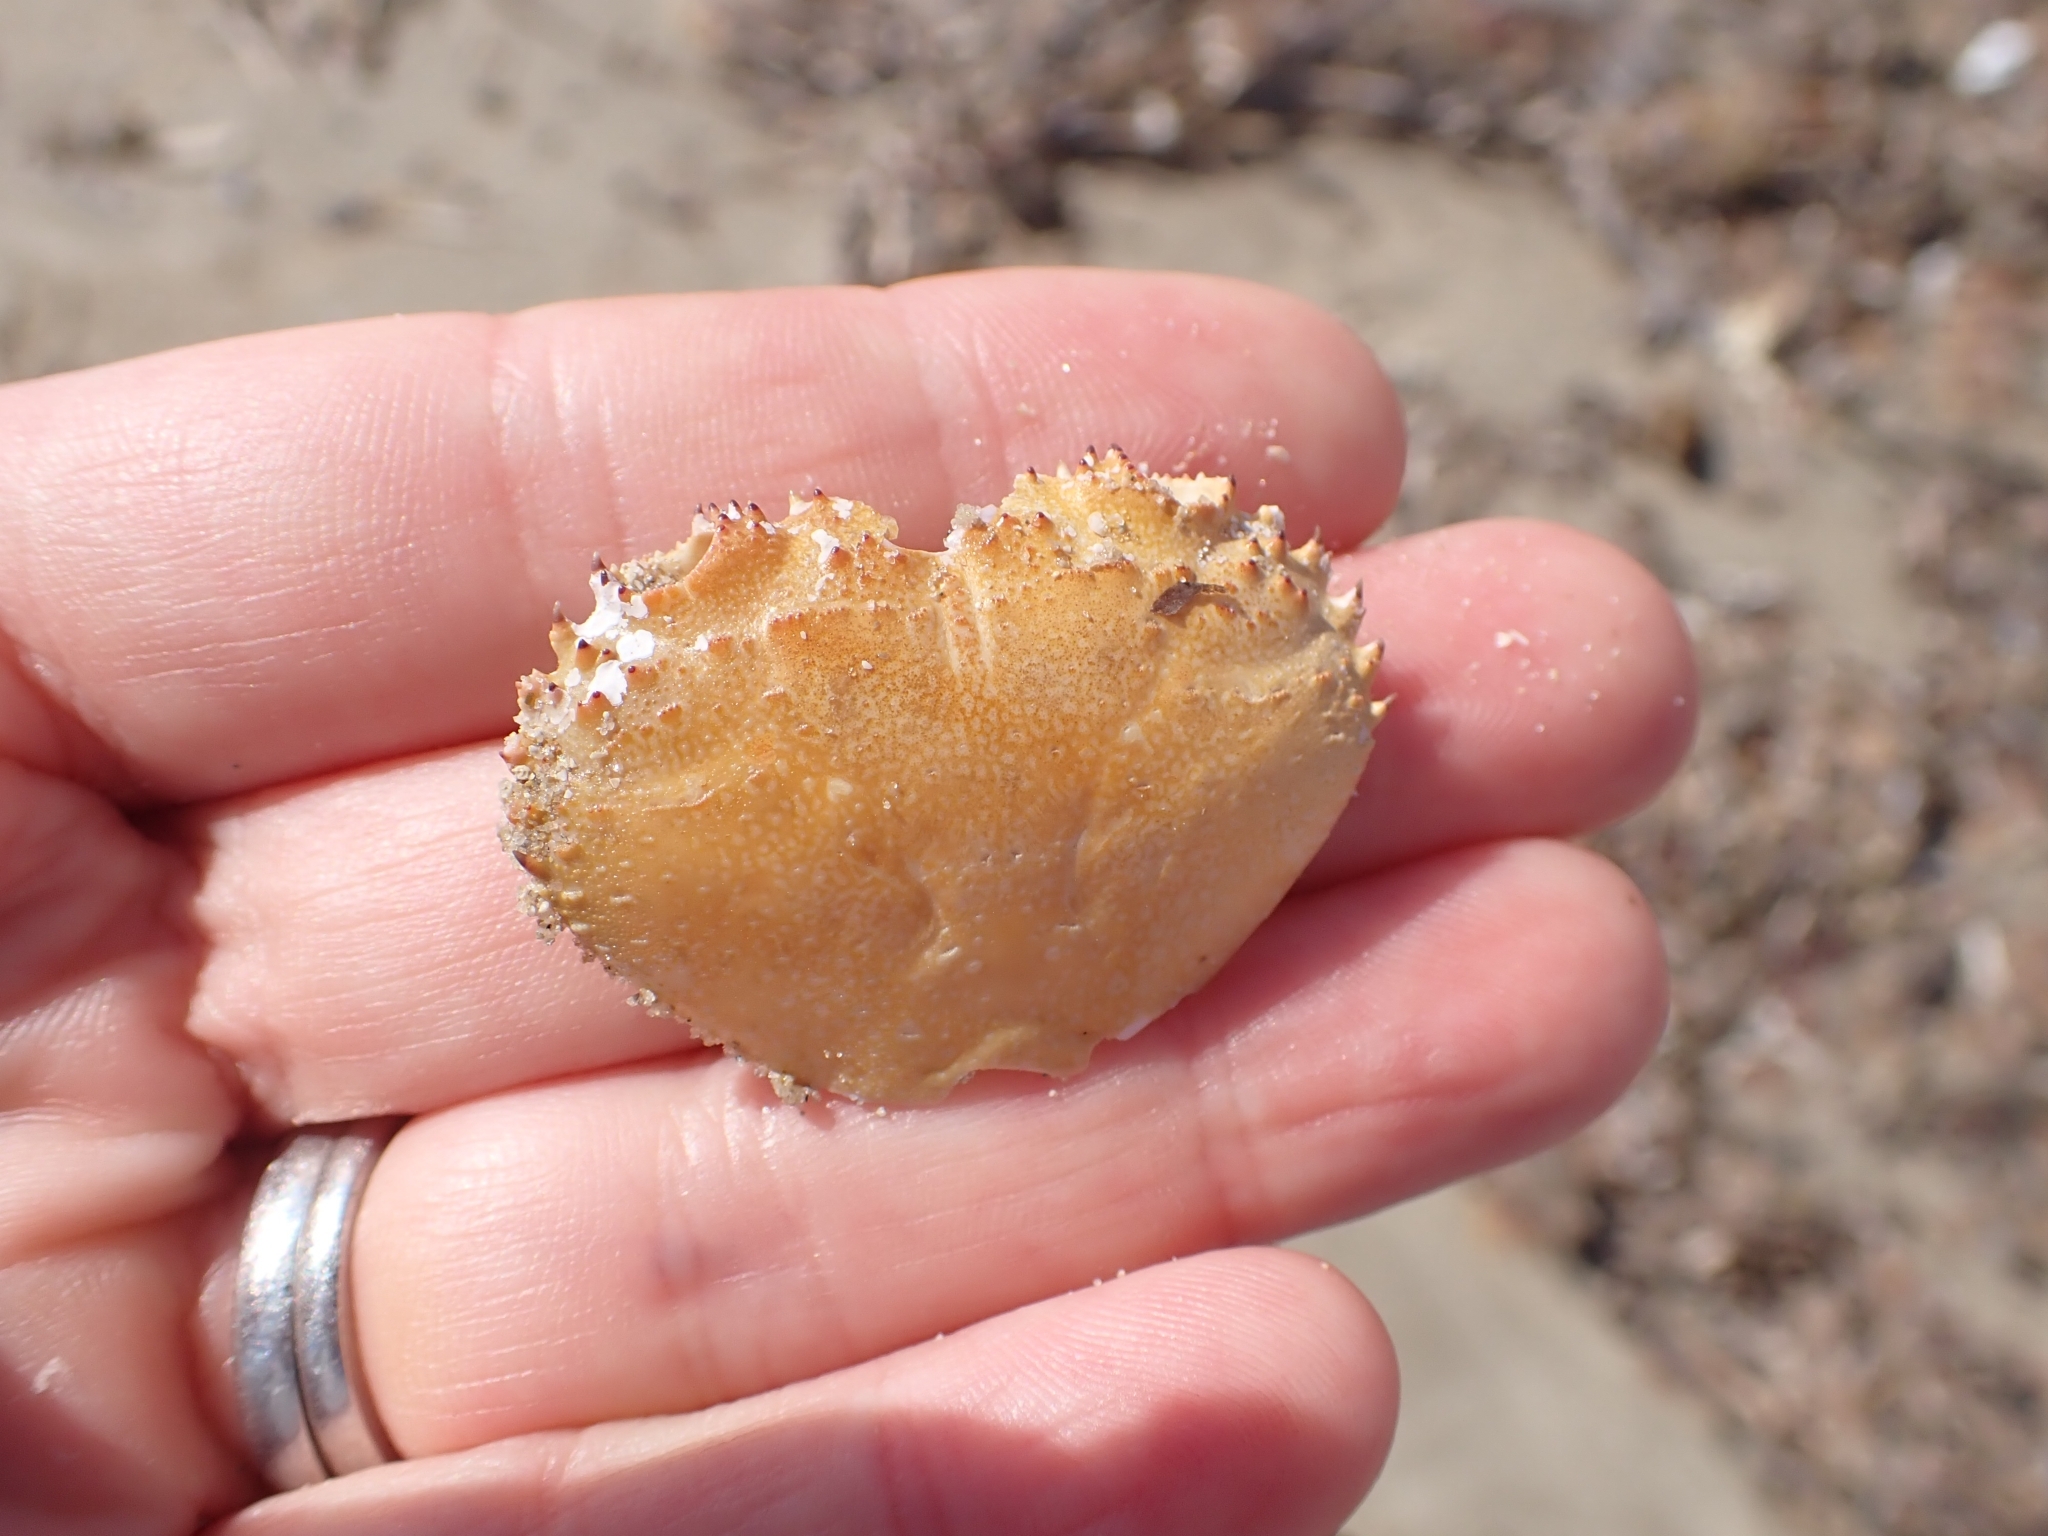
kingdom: Animalia
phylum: Arthropoda
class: Malacostraca
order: Decapoda
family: Eriphiidae
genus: Eriphia
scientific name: Eriphia verrucosa
